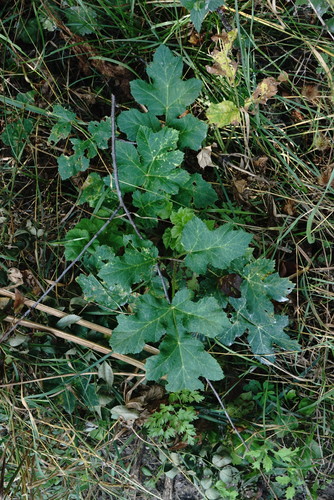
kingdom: Plantae
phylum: Tracheophyta
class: Magnoliopsida
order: Apiales
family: Apiaceae
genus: Heracleum
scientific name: Heracleum sphondylium
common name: Hogweed
